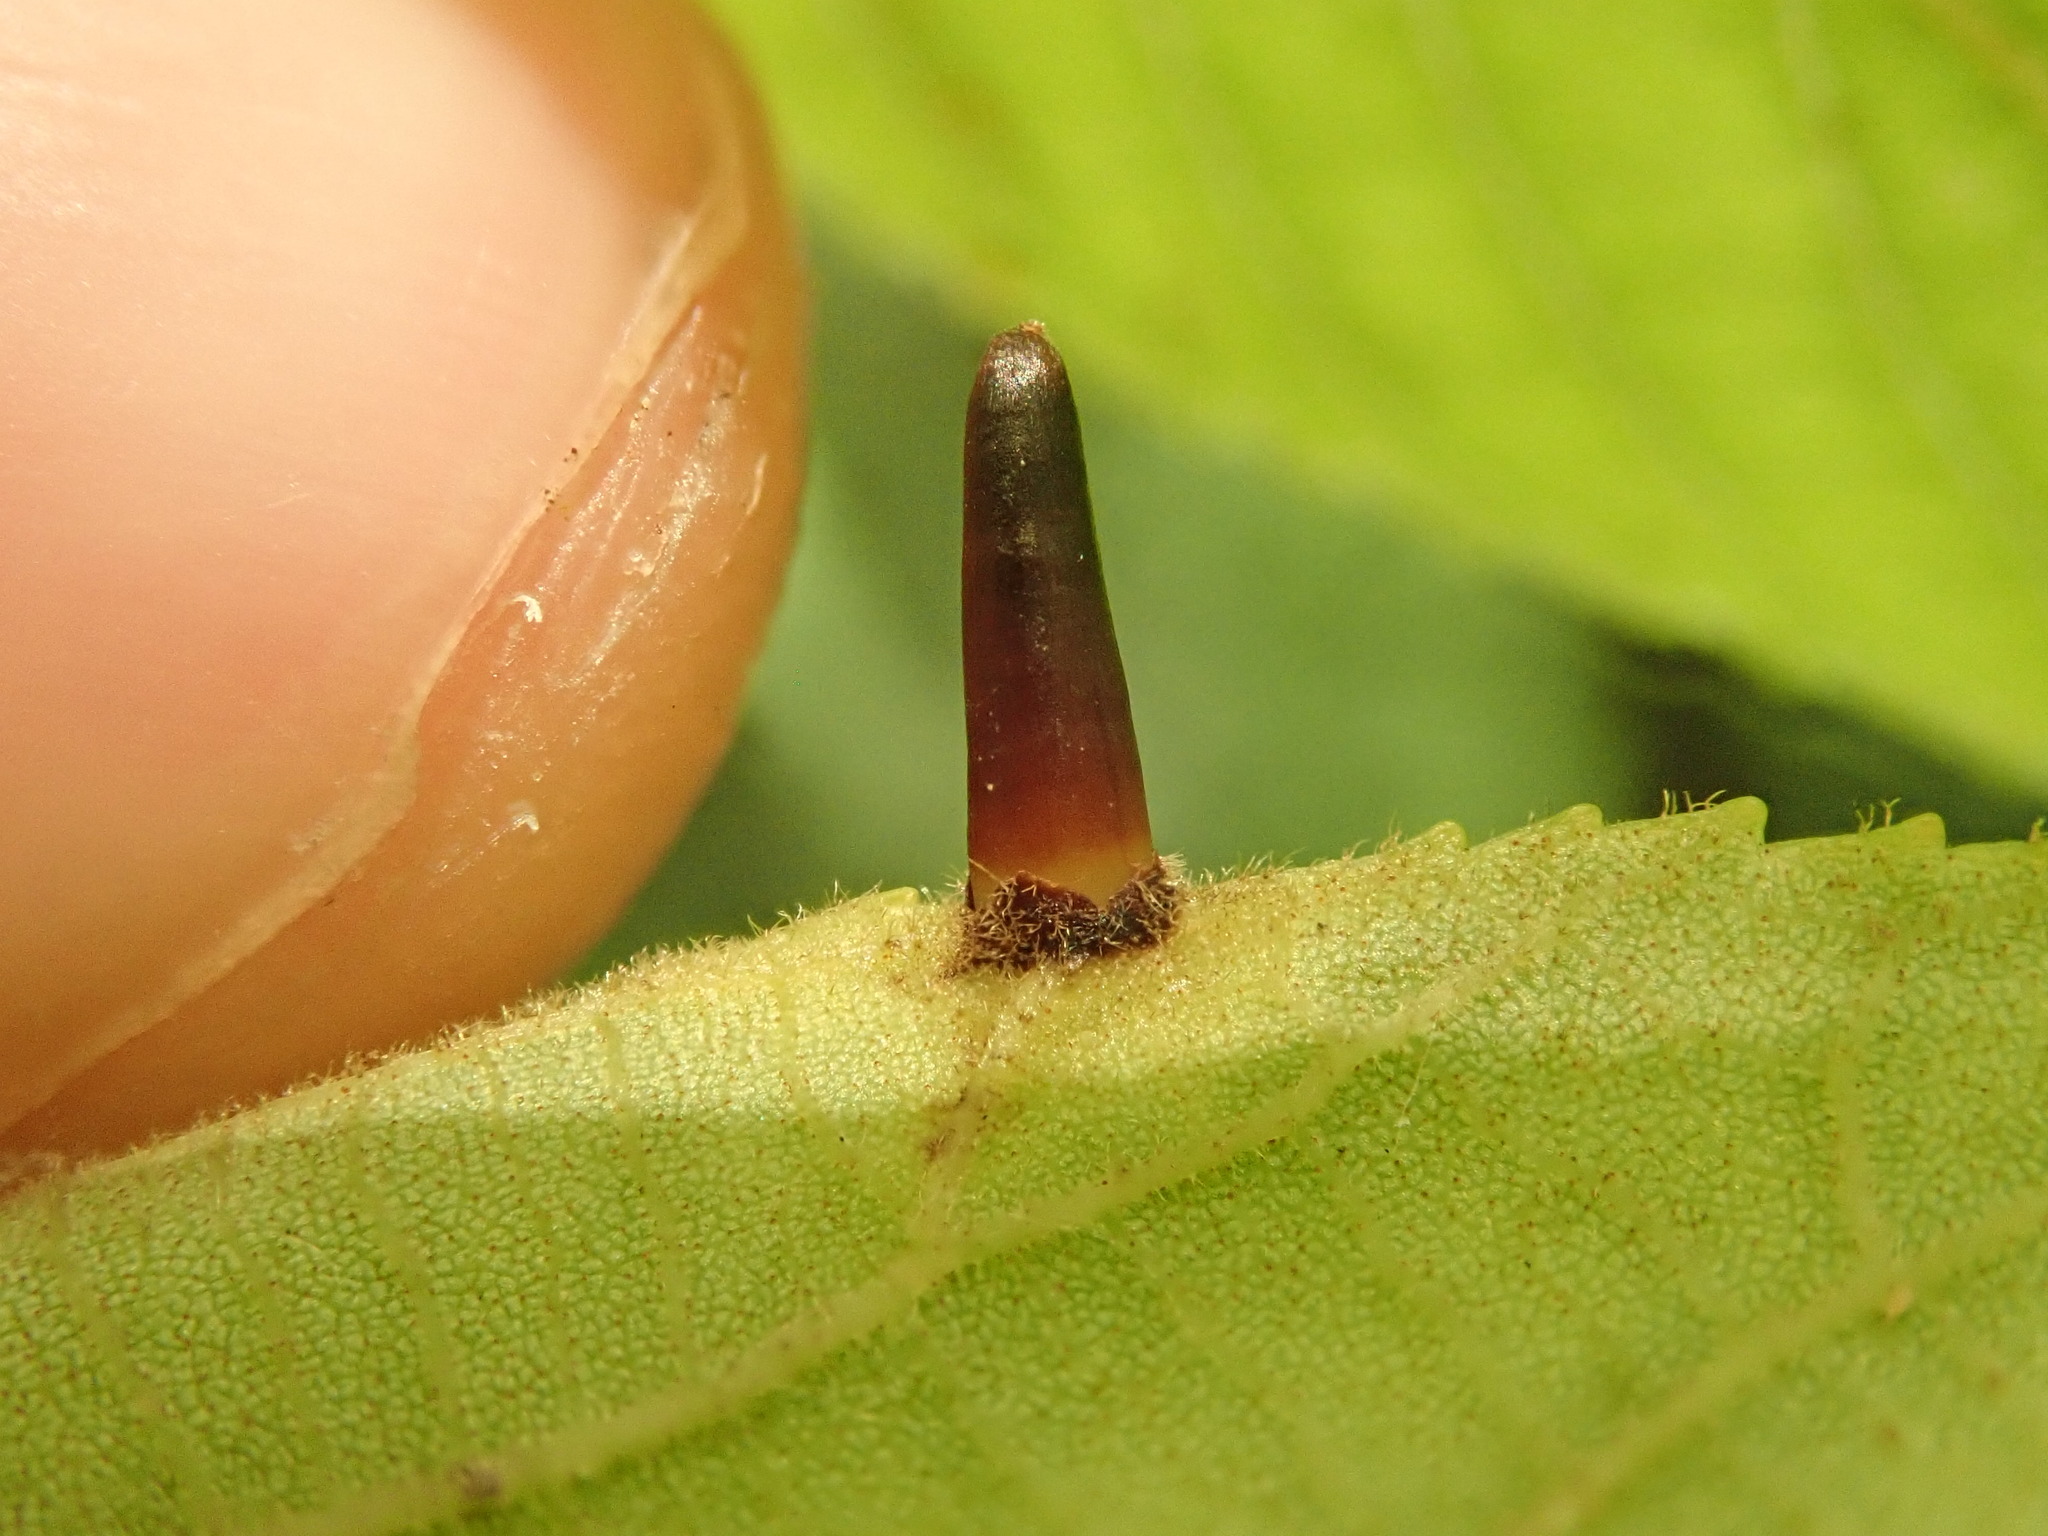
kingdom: Animalia
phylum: Arthropoda
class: Insecta
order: Diptera
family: Cecidomyiidae
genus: Caryomyia
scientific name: Caryomyia subulata
